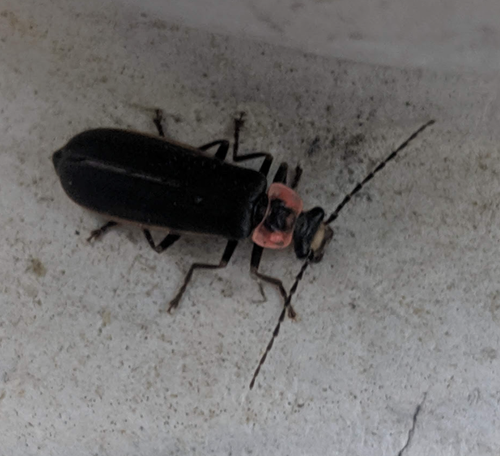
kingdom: Animalia
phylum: Arthropoda
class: Insecta
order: Coleoptera
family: Cantharidae
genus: Podabrus
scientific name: Podabrus brevicollis
